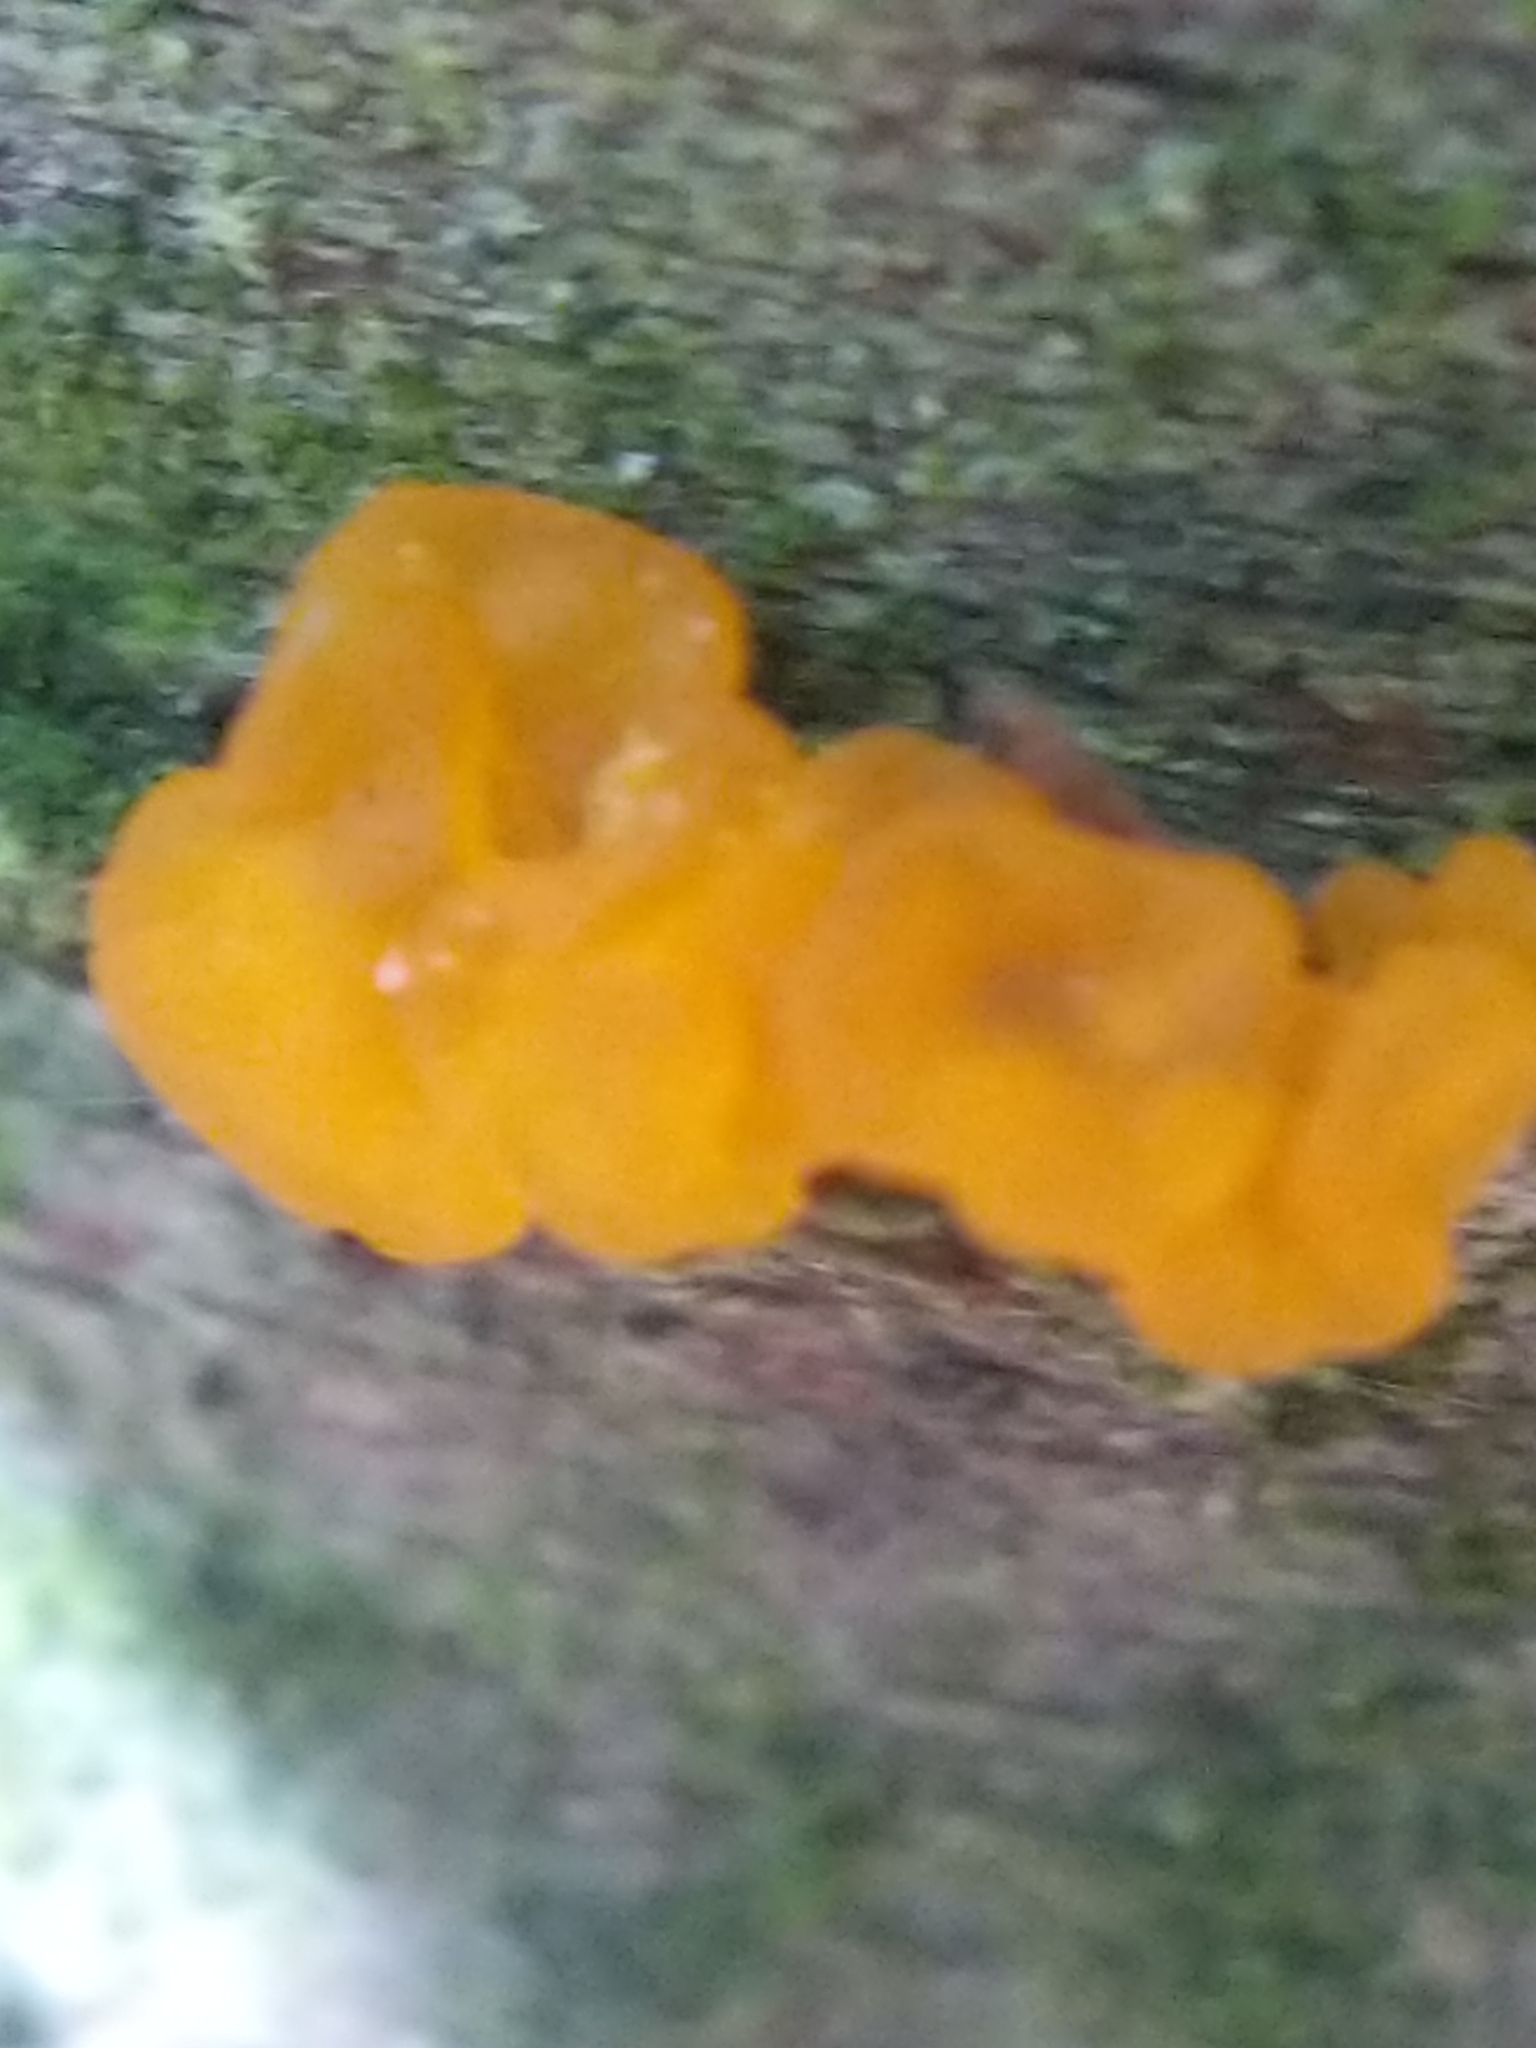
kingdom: Fungi
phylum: Basidiomycota
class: Tremellomycetes
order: Tremellales
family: Tremellaceae
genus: Tremella
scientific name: Tremella mesenterica
